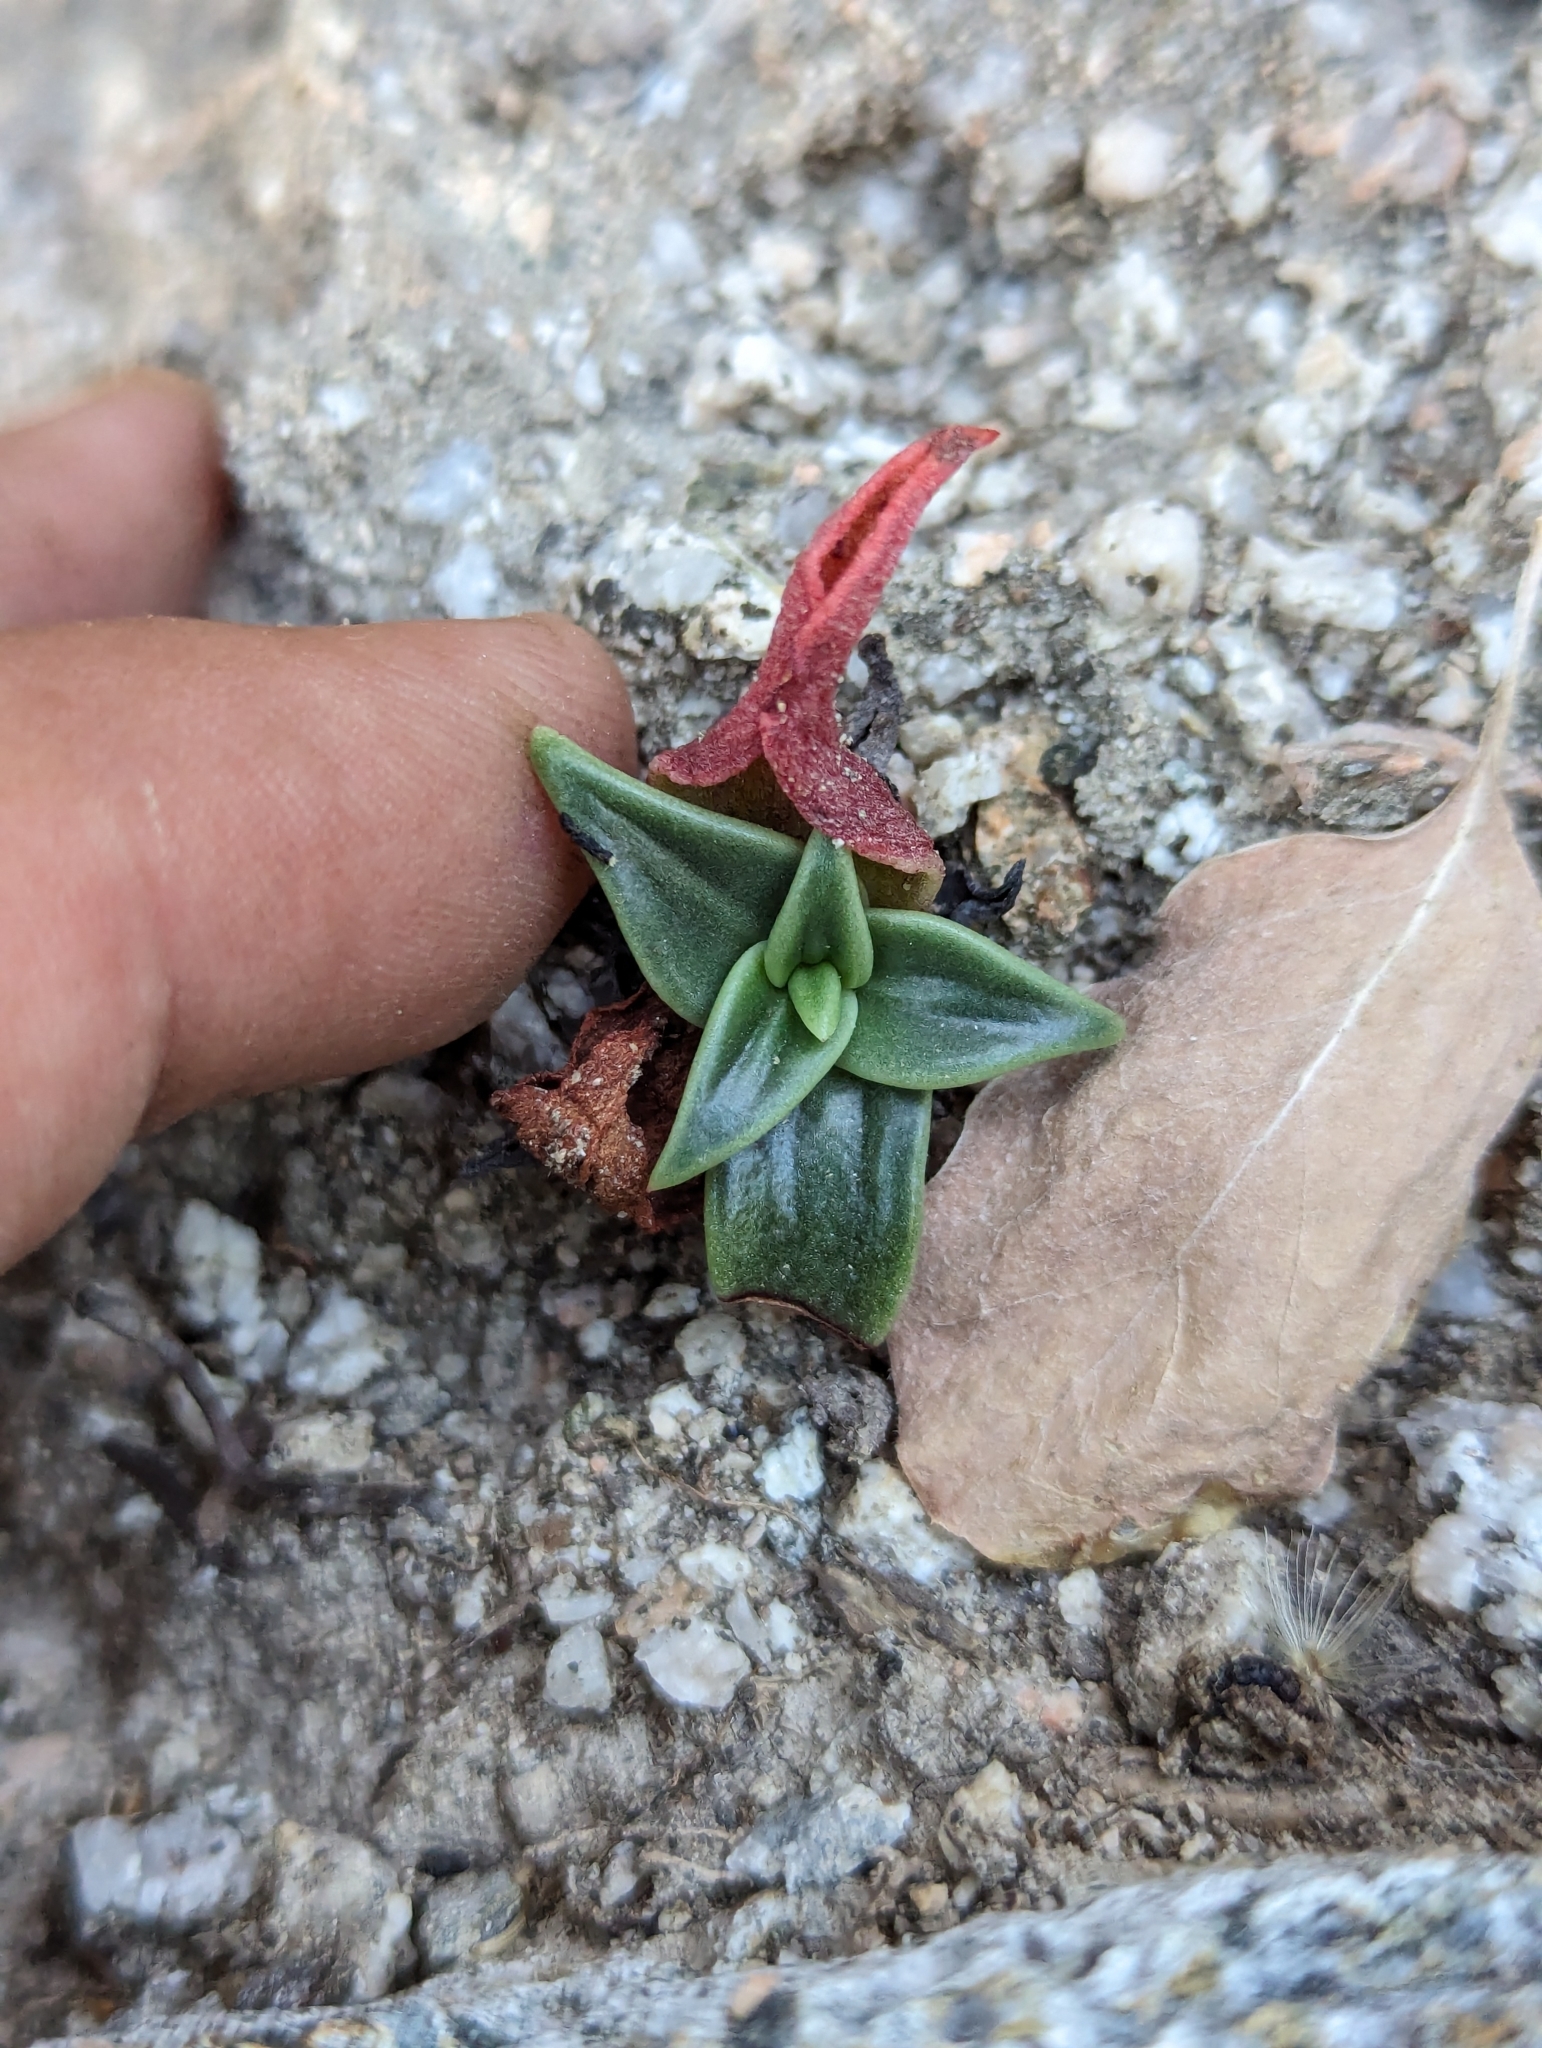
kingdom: Plantae
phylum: Tracheophyta
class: Magnoliopsida
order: Saxifragales
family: Crassulaceae
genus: Dudleya
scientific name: Dudleya nubigena
